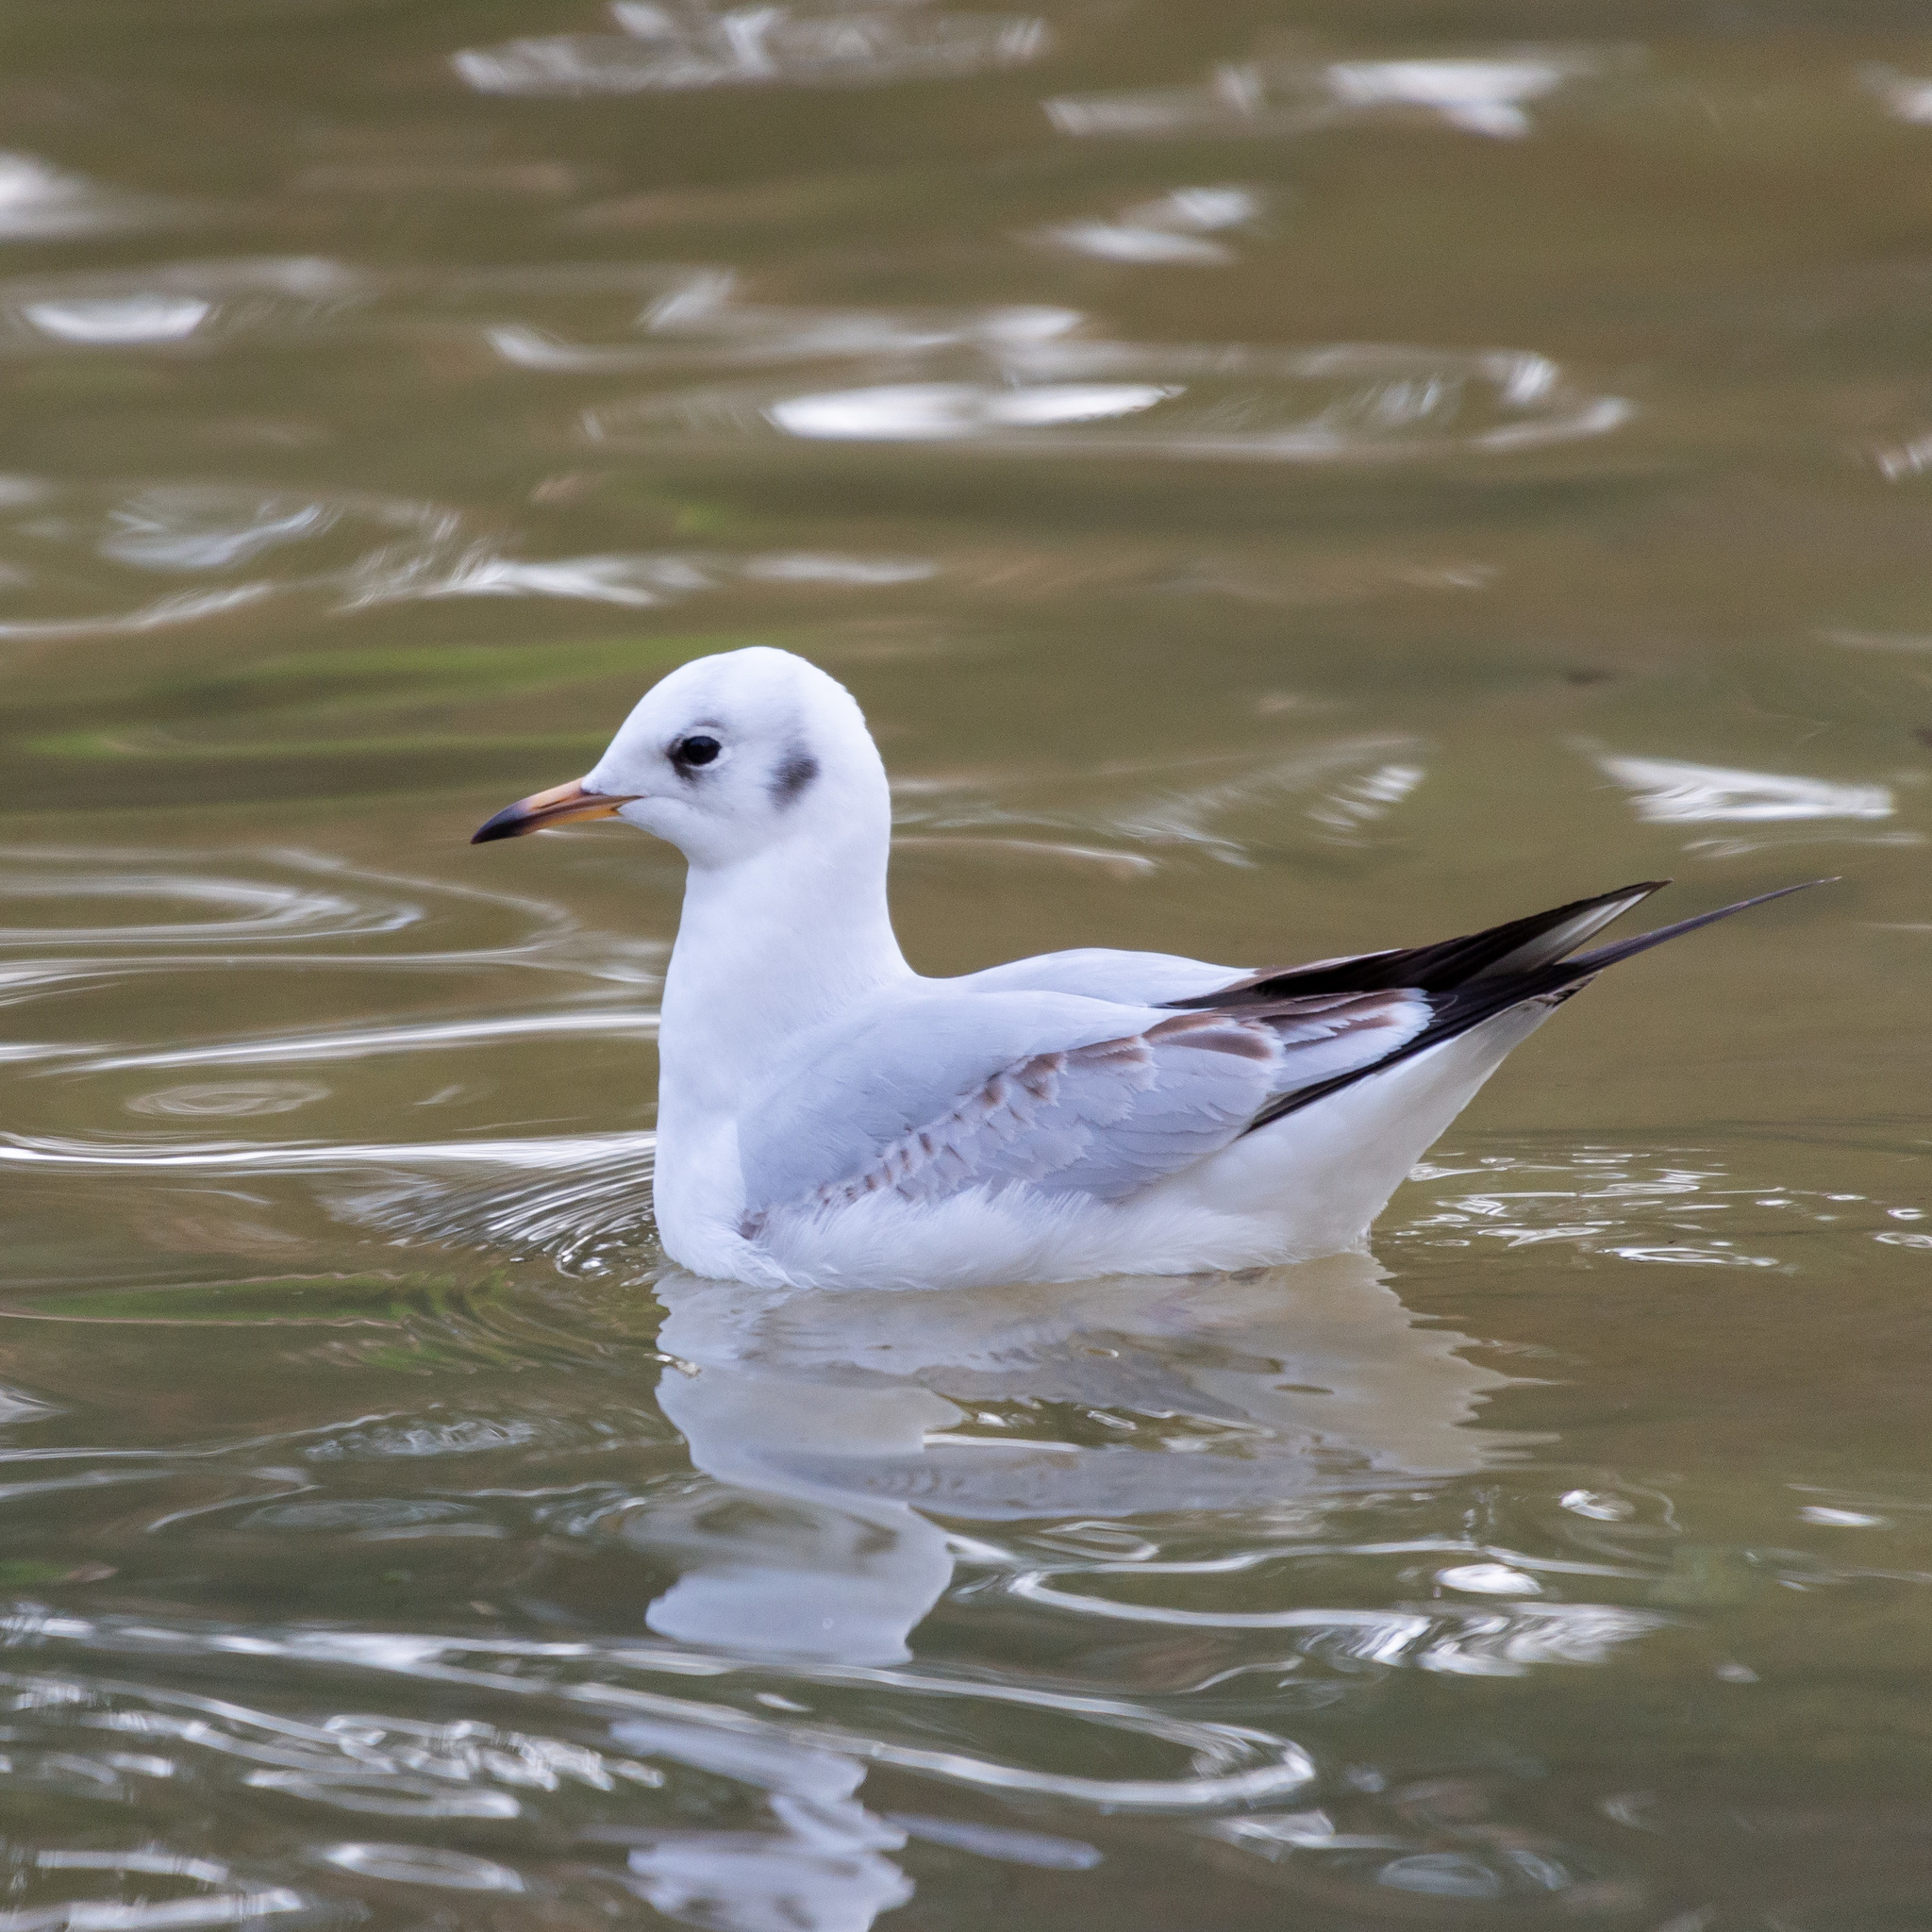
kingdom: Animalia
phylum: Chordata
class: Aves
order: Charadriiformes
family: Laridae
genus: Chroicocephalus
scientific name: Chroicocephalus ridibundus
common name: Black-headed gull
